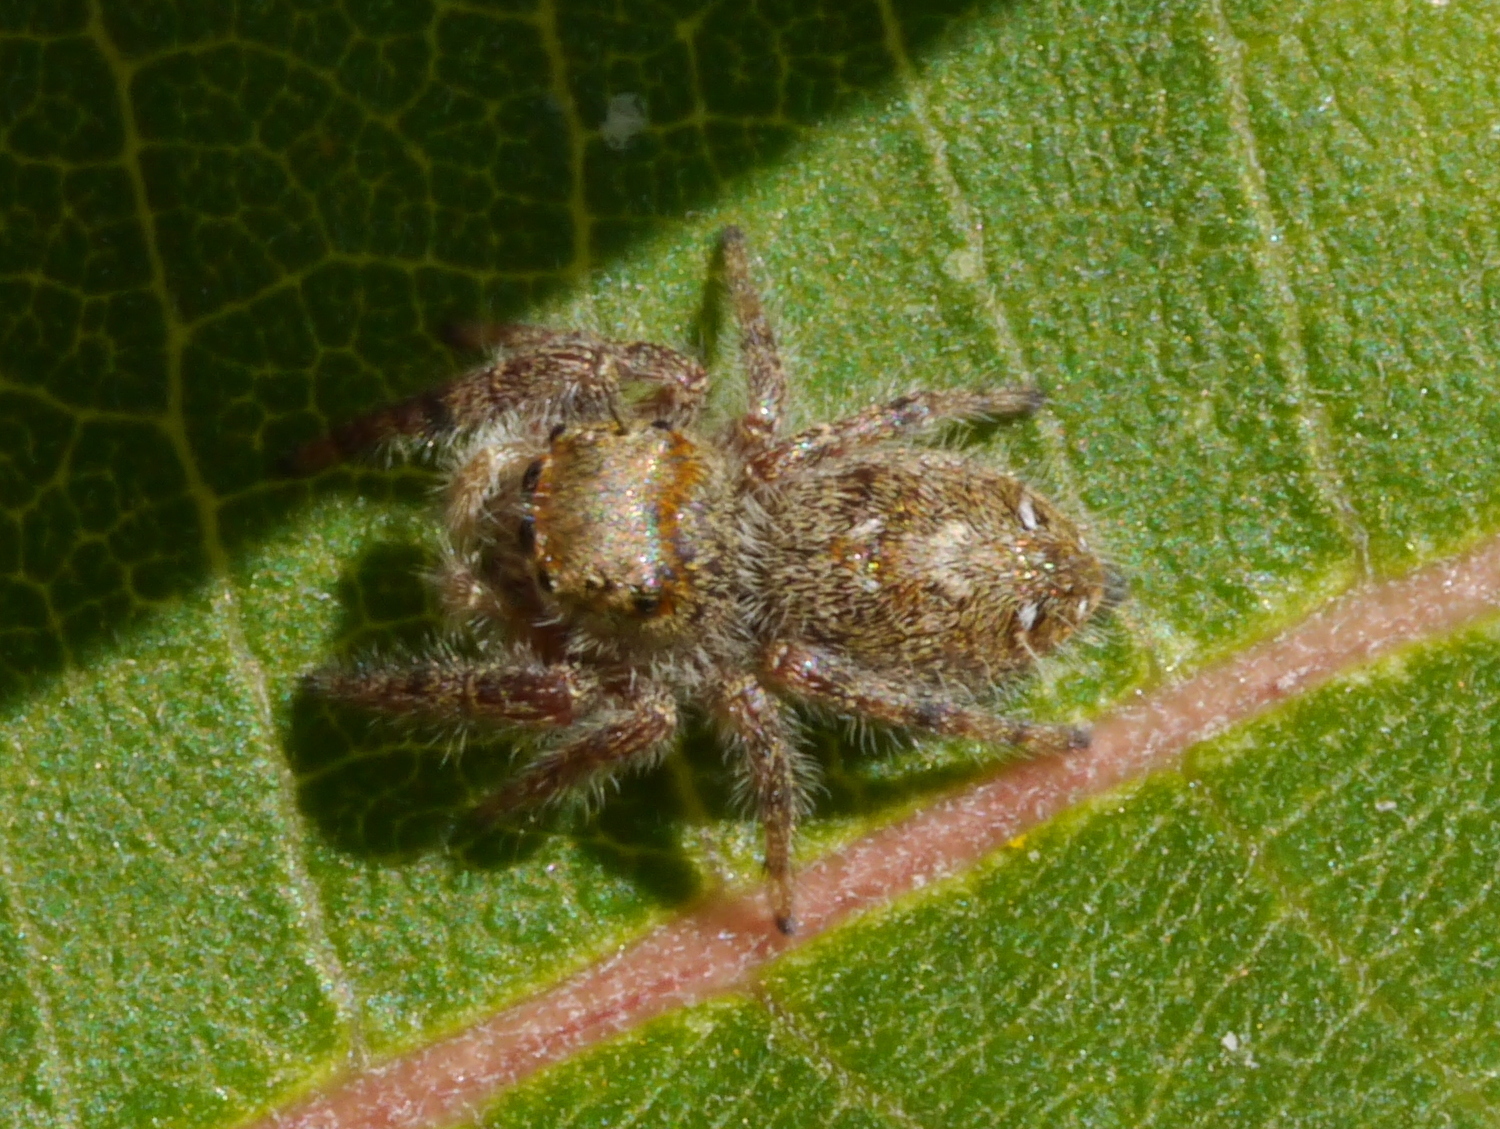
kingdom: Animalia
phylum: Arthropoda
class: Arachnida
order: Araneae
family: Salticidae
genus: Phidippus
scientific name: Phidippus princeps
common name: Grayish jumping spider
